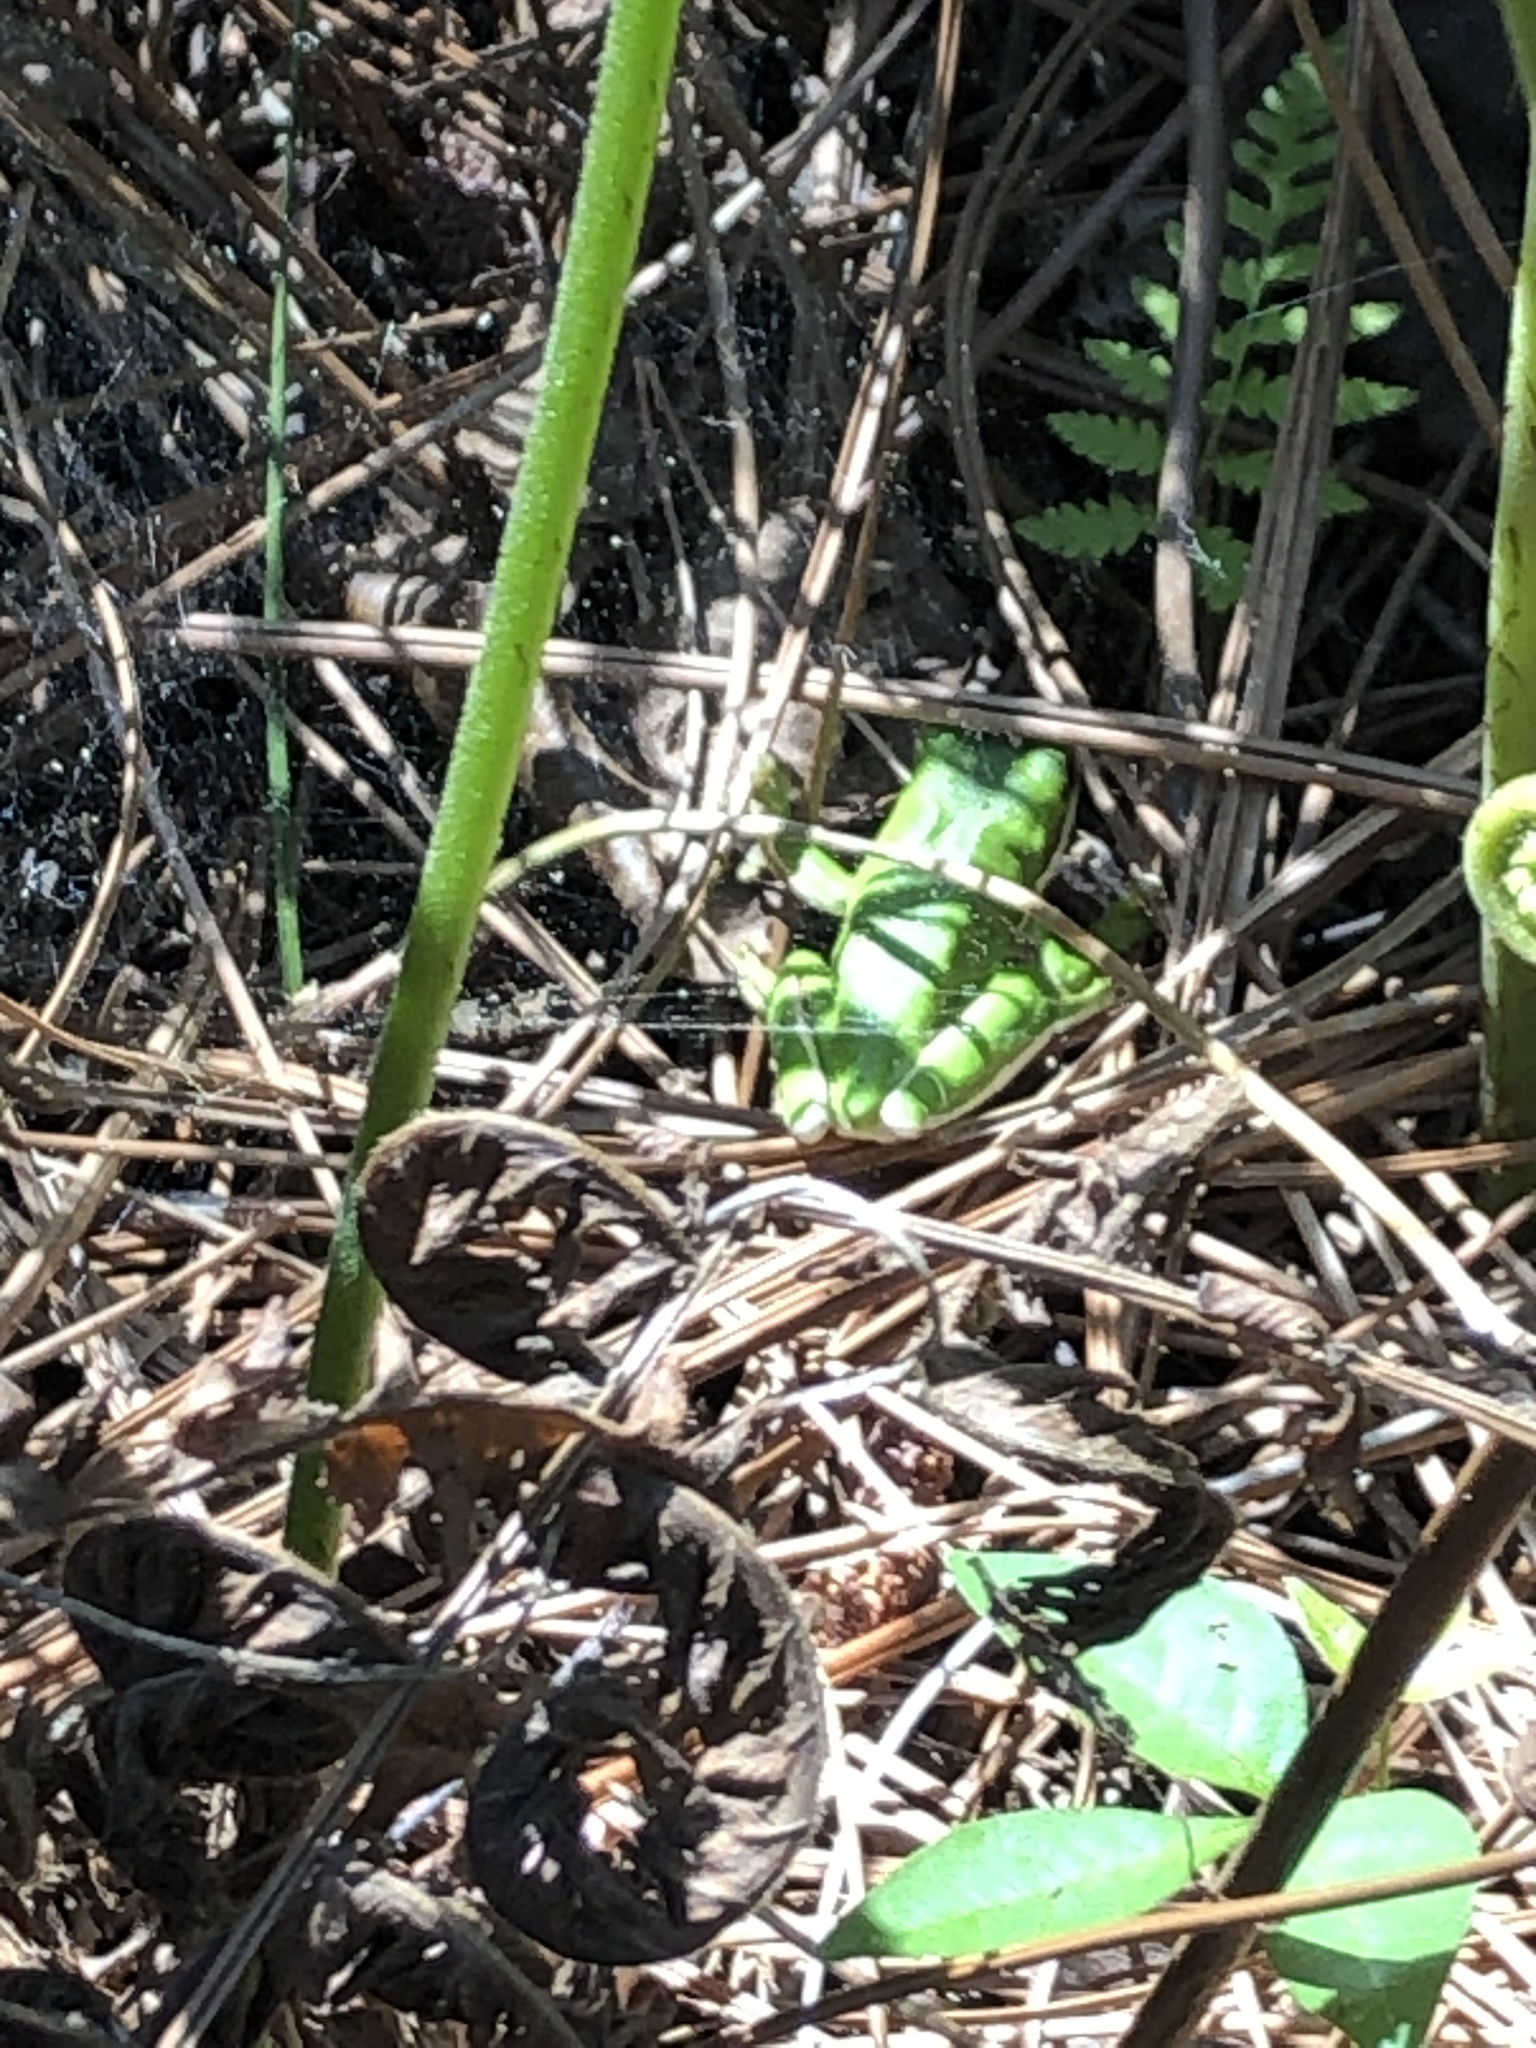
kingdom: Animalia
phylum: Chordata
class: Amphibia
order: Anura
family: Hylidae
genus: Dryophytes
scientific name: Dryophytes cinereus
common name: Green treefrog
